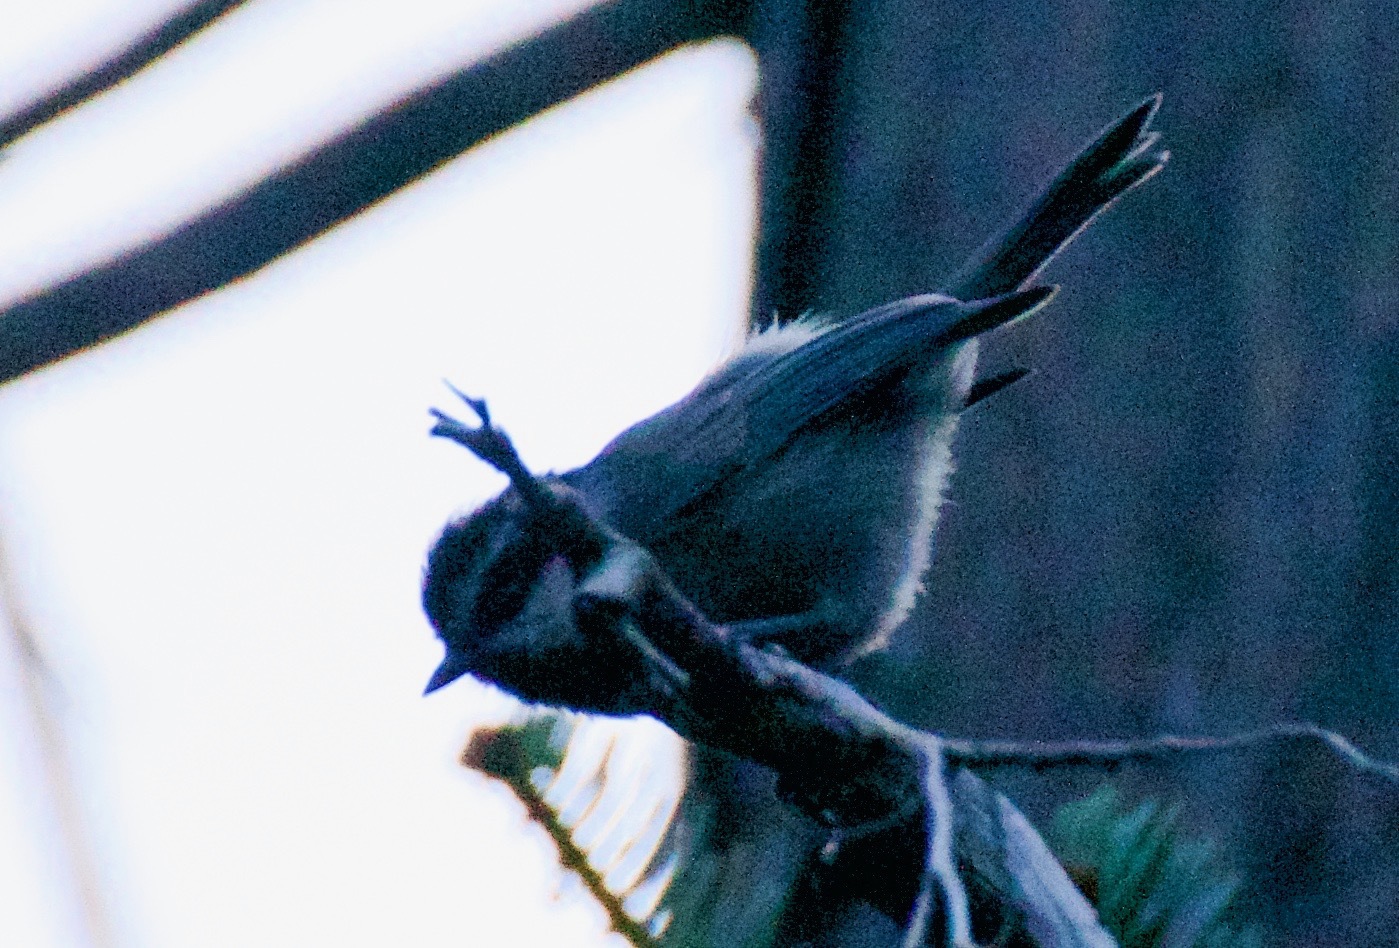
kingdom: Animalia
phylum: Chordata
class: Aves
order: Passeriformes
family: Paridae
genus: Poecile
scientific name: Poecile gambeli
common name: Mountain chickadee
